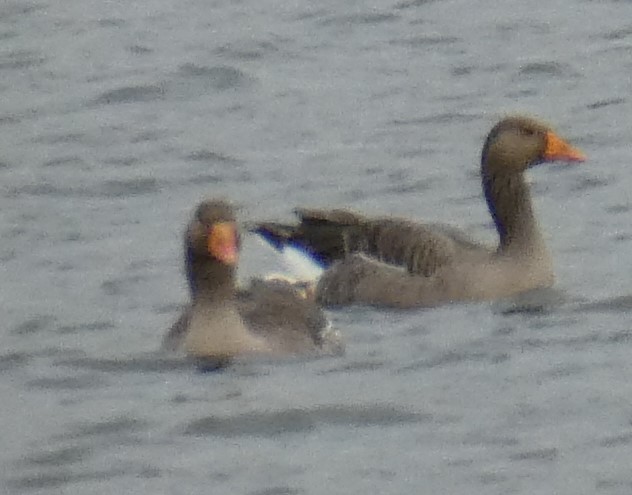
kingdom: Animalia
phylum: Chordata
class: Aves
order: Anseriformes
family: Anatidae
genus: Anser
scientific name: Anser anser
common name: Greylag goose
